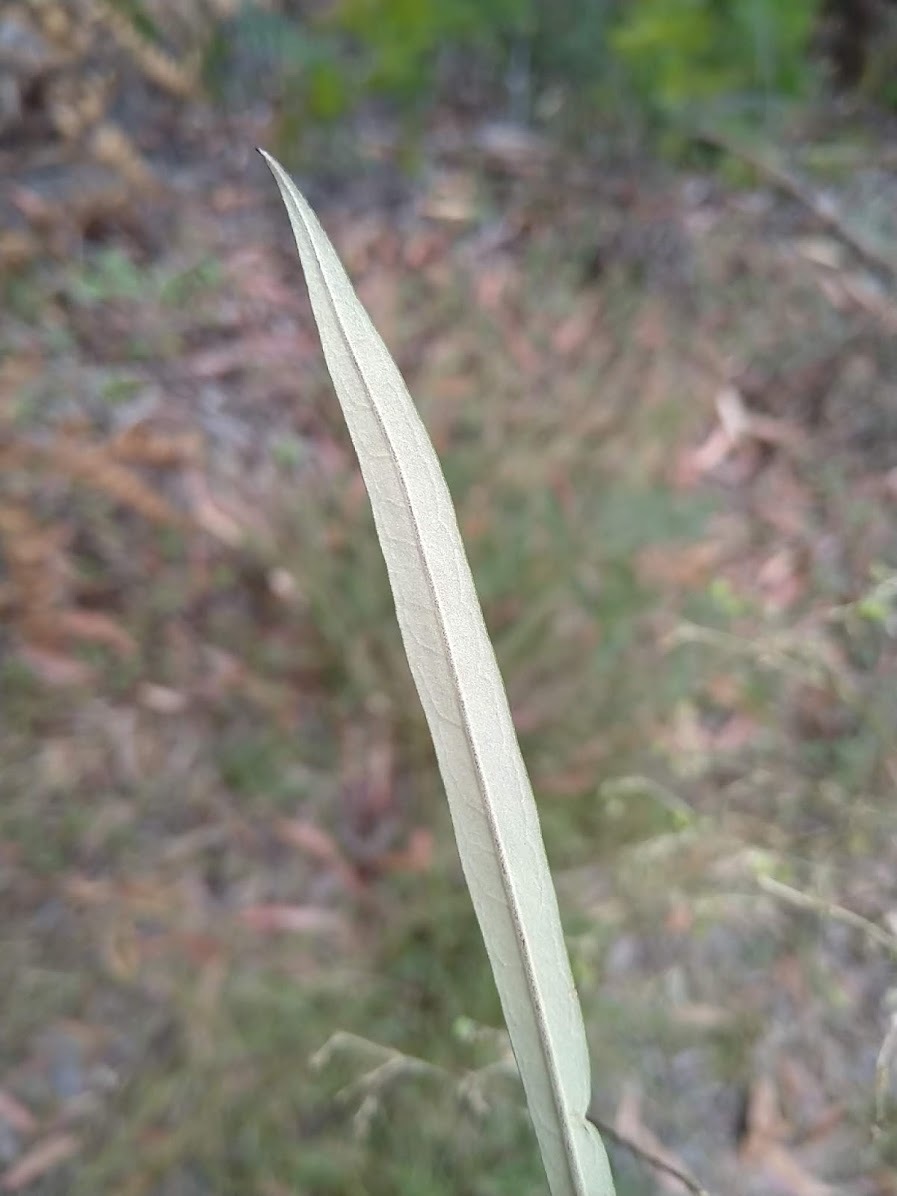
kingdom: Plantae
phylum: Tracheophyta
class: Magnoliopsida
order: Apiales
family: Araliaceae
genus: Astrotricha
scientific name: Astrotricha longifolia
